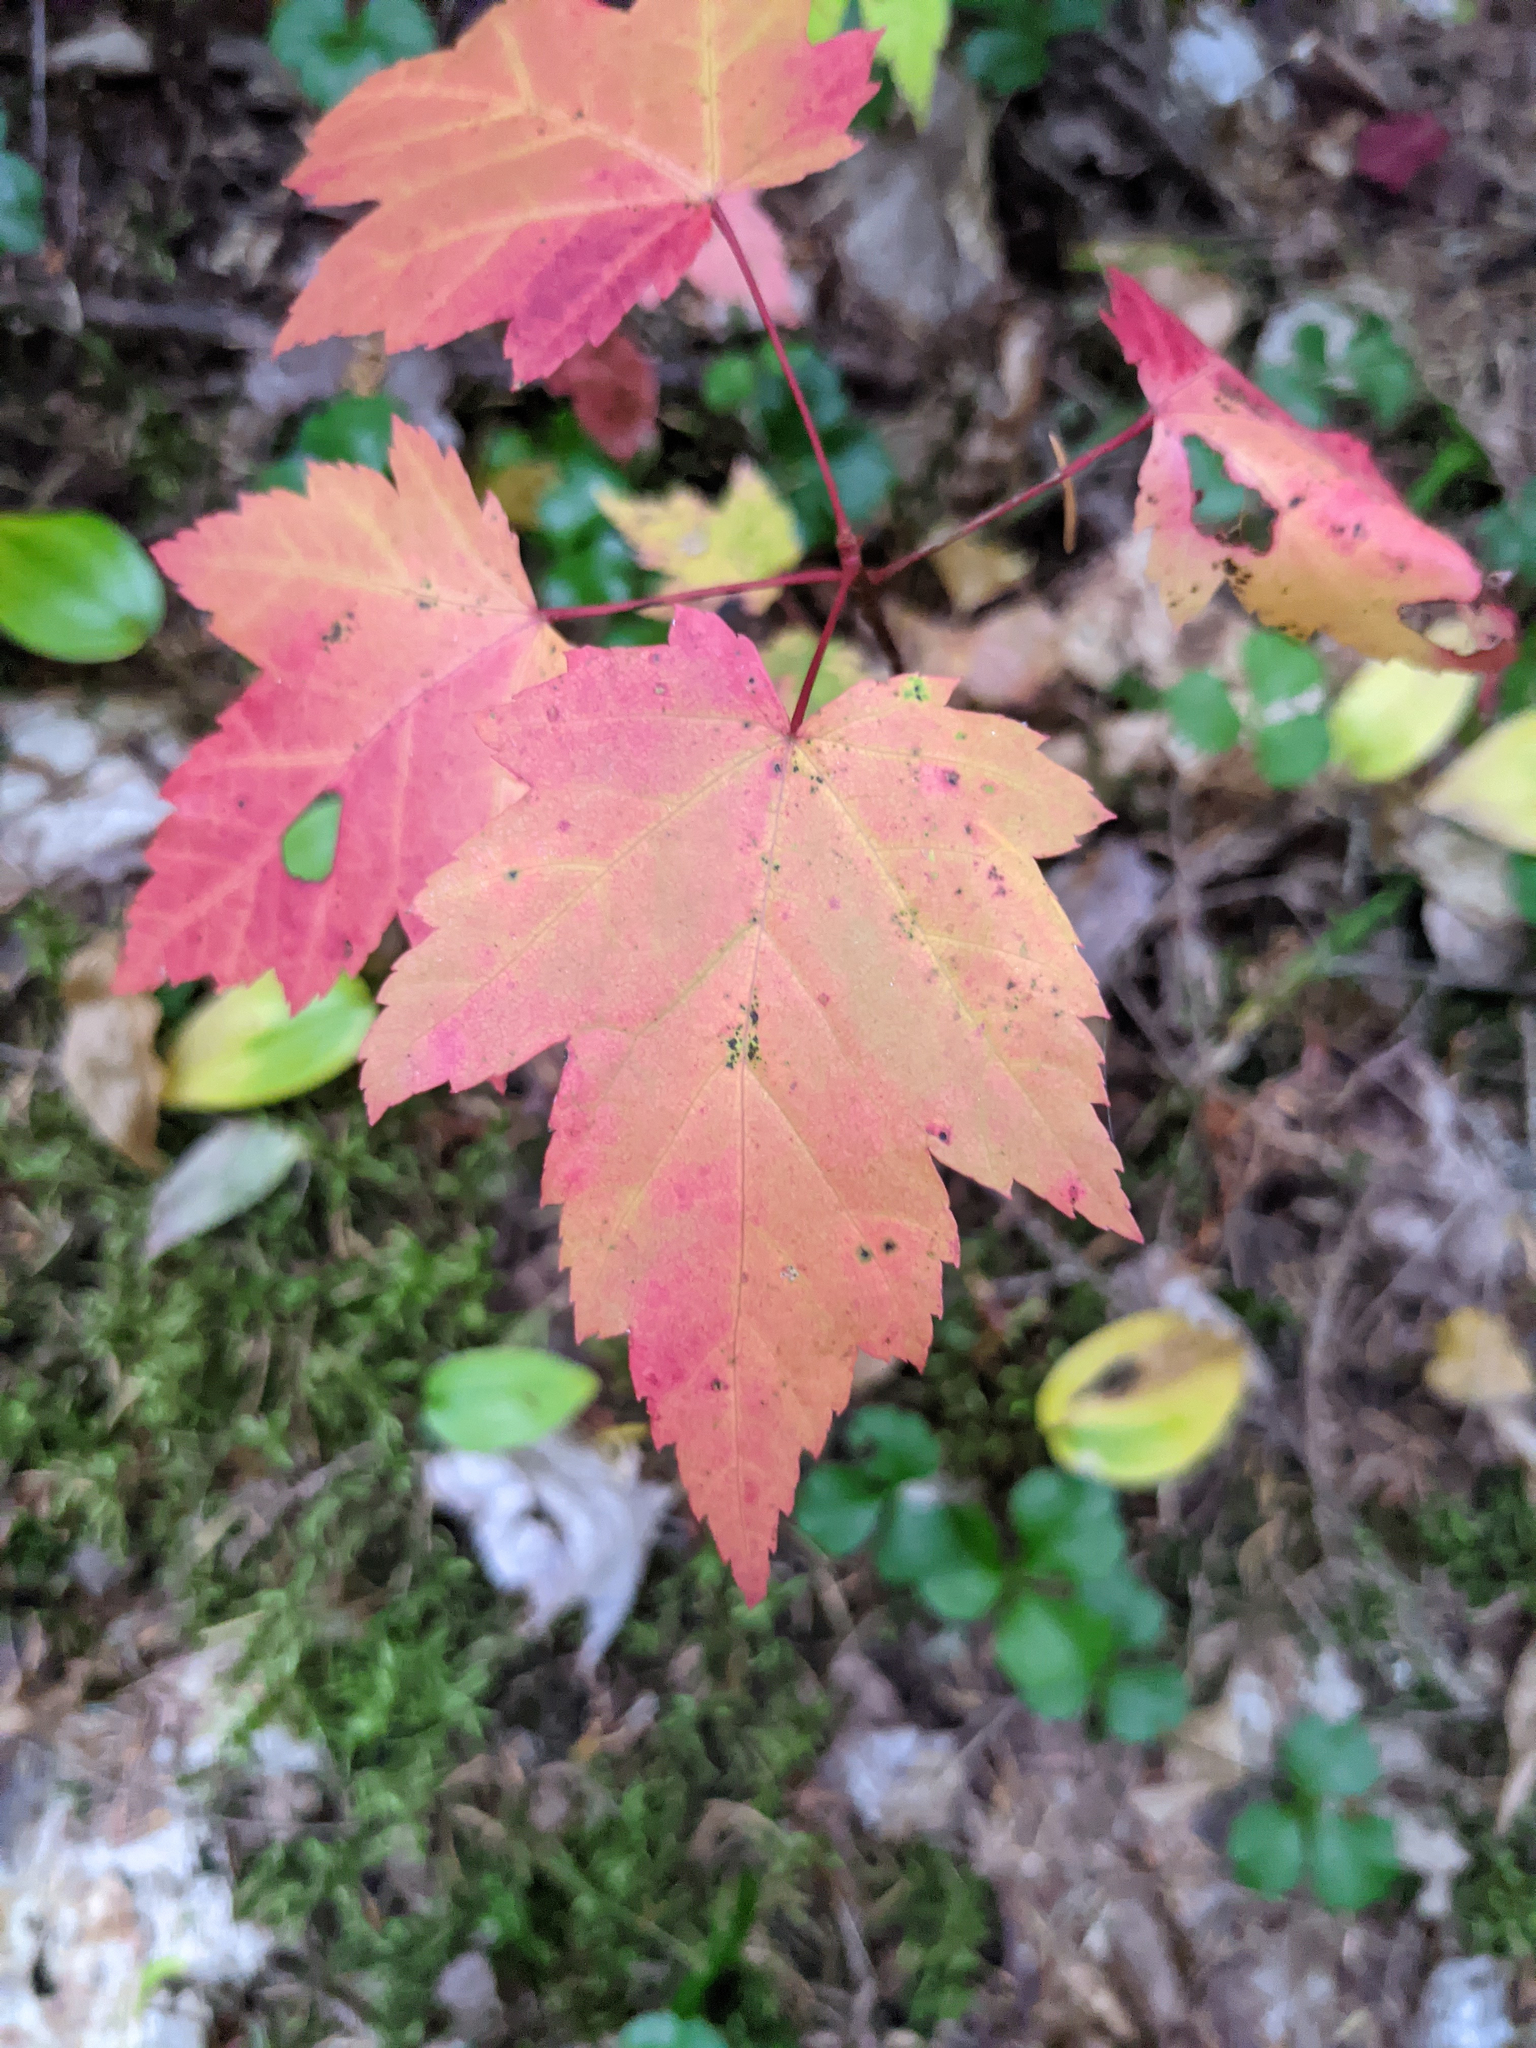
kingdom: Plantae
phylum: Tracheophyta
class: Magnoliopsida
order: Sapindales
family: Sapindaceae
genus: Acer
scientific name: Acer rubrum
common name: Red maple
